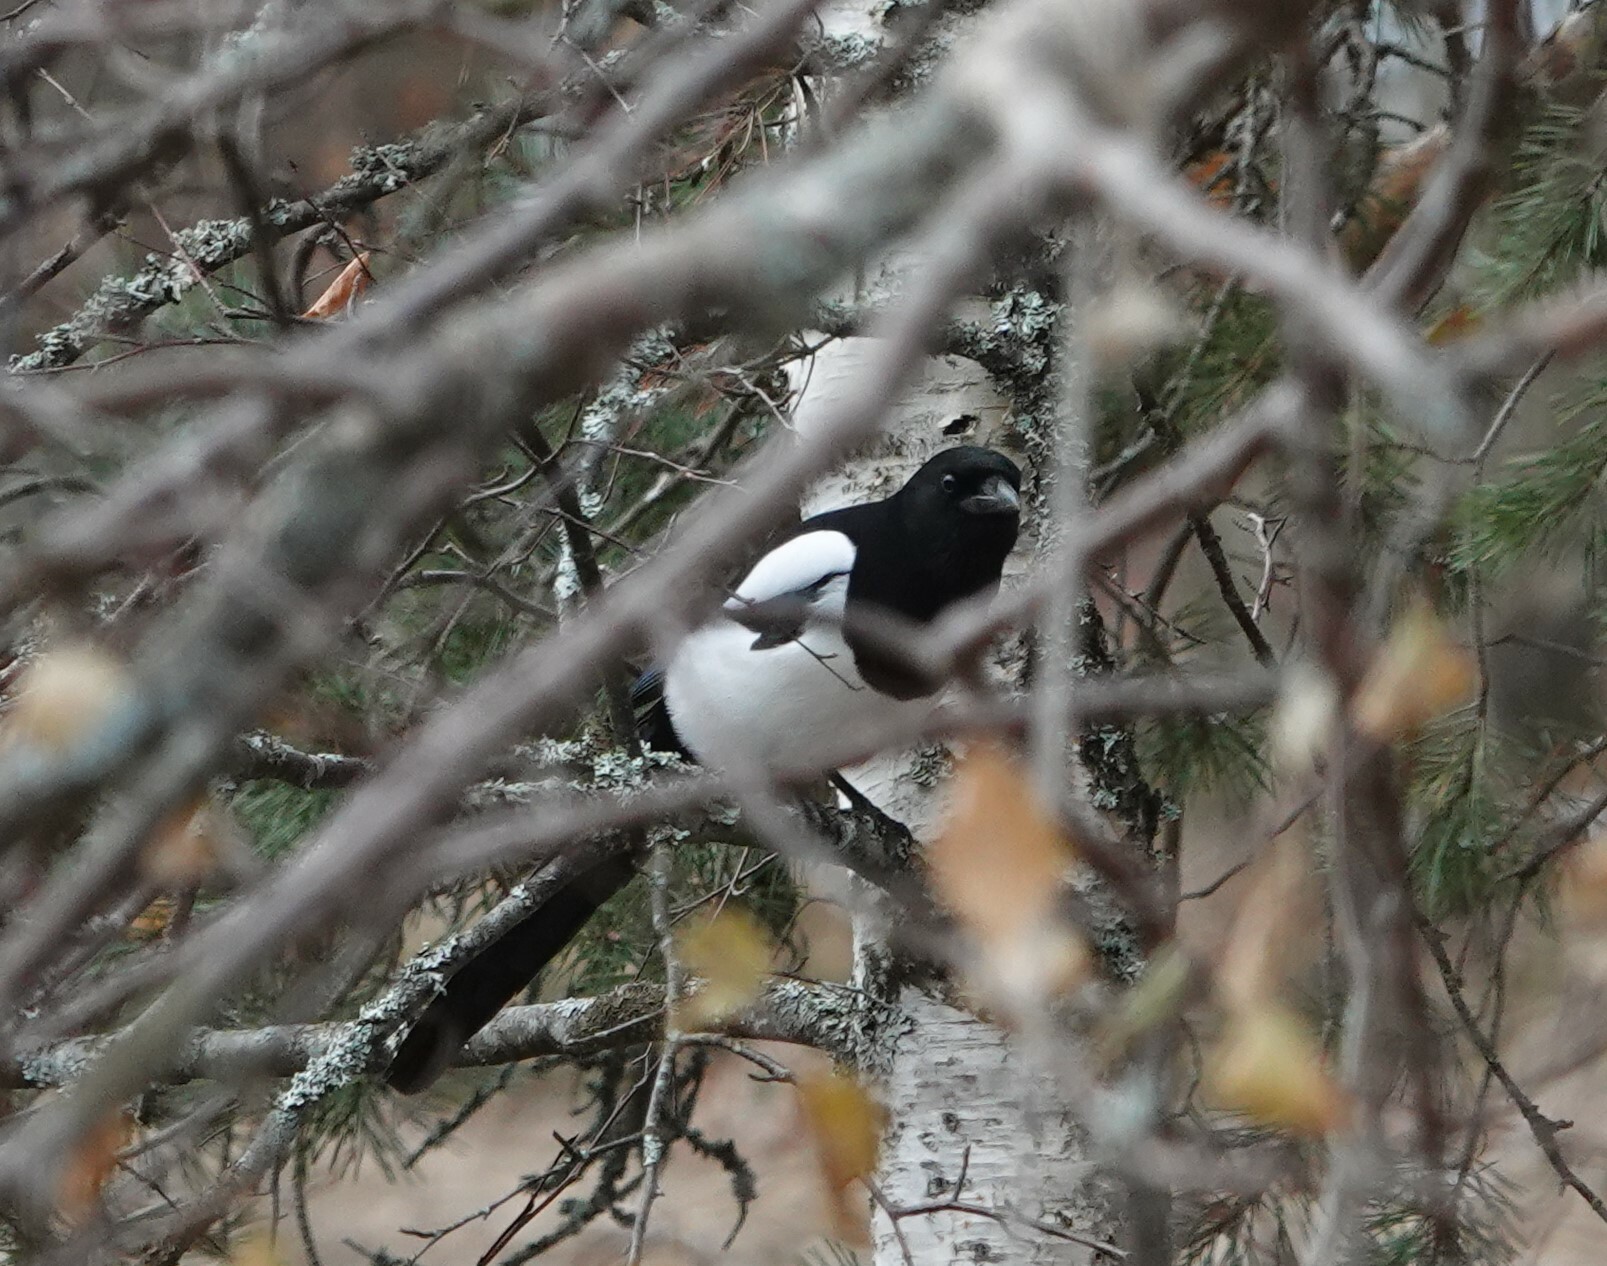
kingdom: Animalia
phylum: Chordata
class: Aves
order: Passeriformes
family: Corvidae
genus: Pica
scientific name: Pica pica
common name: Eurasian magpie
